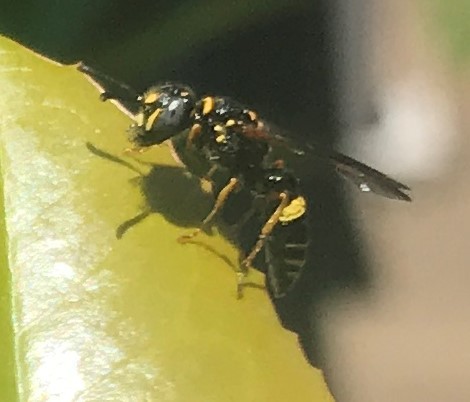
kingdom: Animalia
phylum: Arthropoda
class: Insecta
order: Hymenoptera
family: Crabronidae
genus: Philanthus
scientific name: Philanthus gibbosus
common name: Humped beewolf
